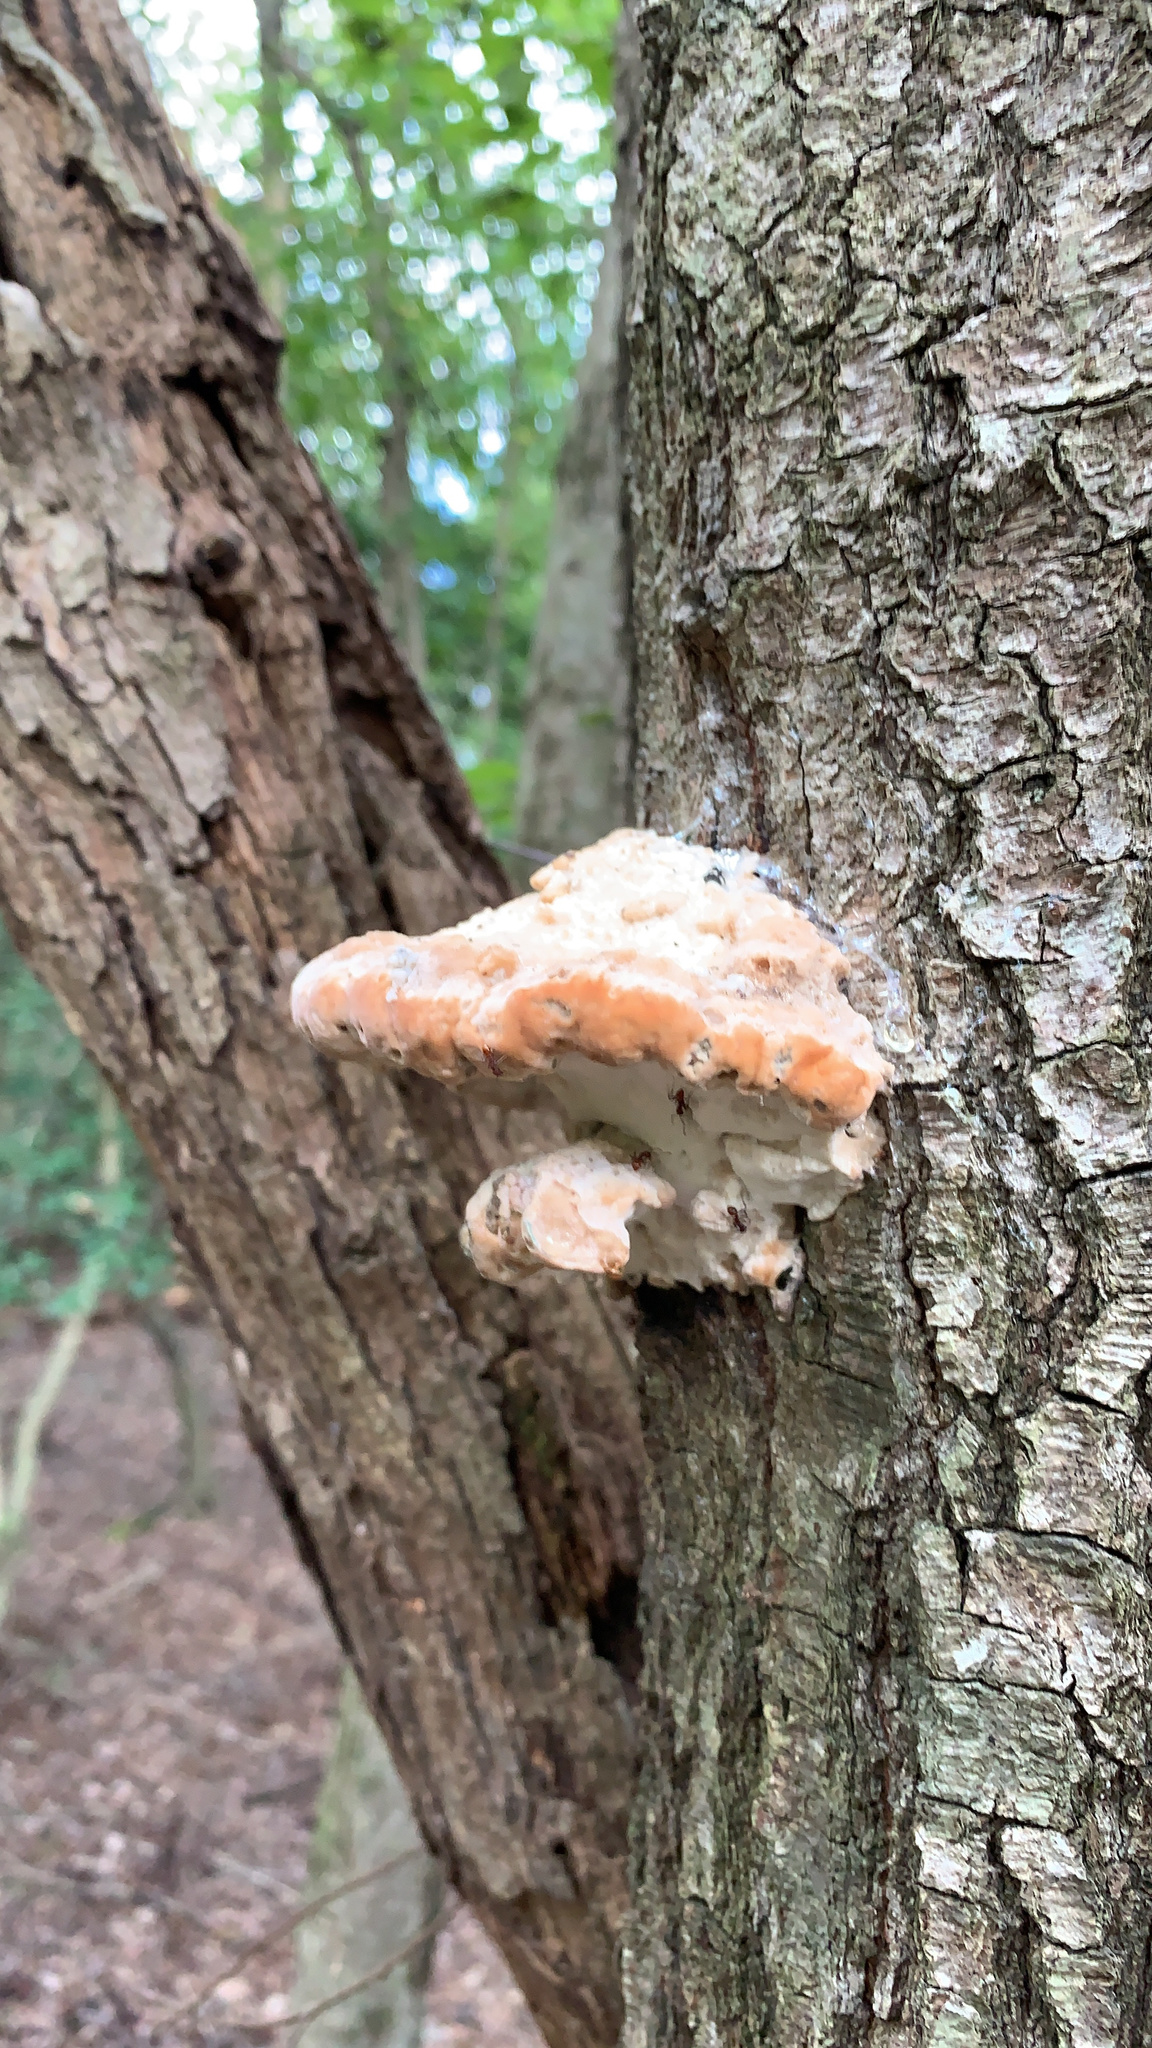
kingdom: Fungi
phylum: Basidiomycota
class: Agaricomycetes
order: Polyporales
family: Fomitopsidaceae
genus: Niveoporofomes
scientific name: Niveoporofomes spraguei
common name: Green cheese polypore
